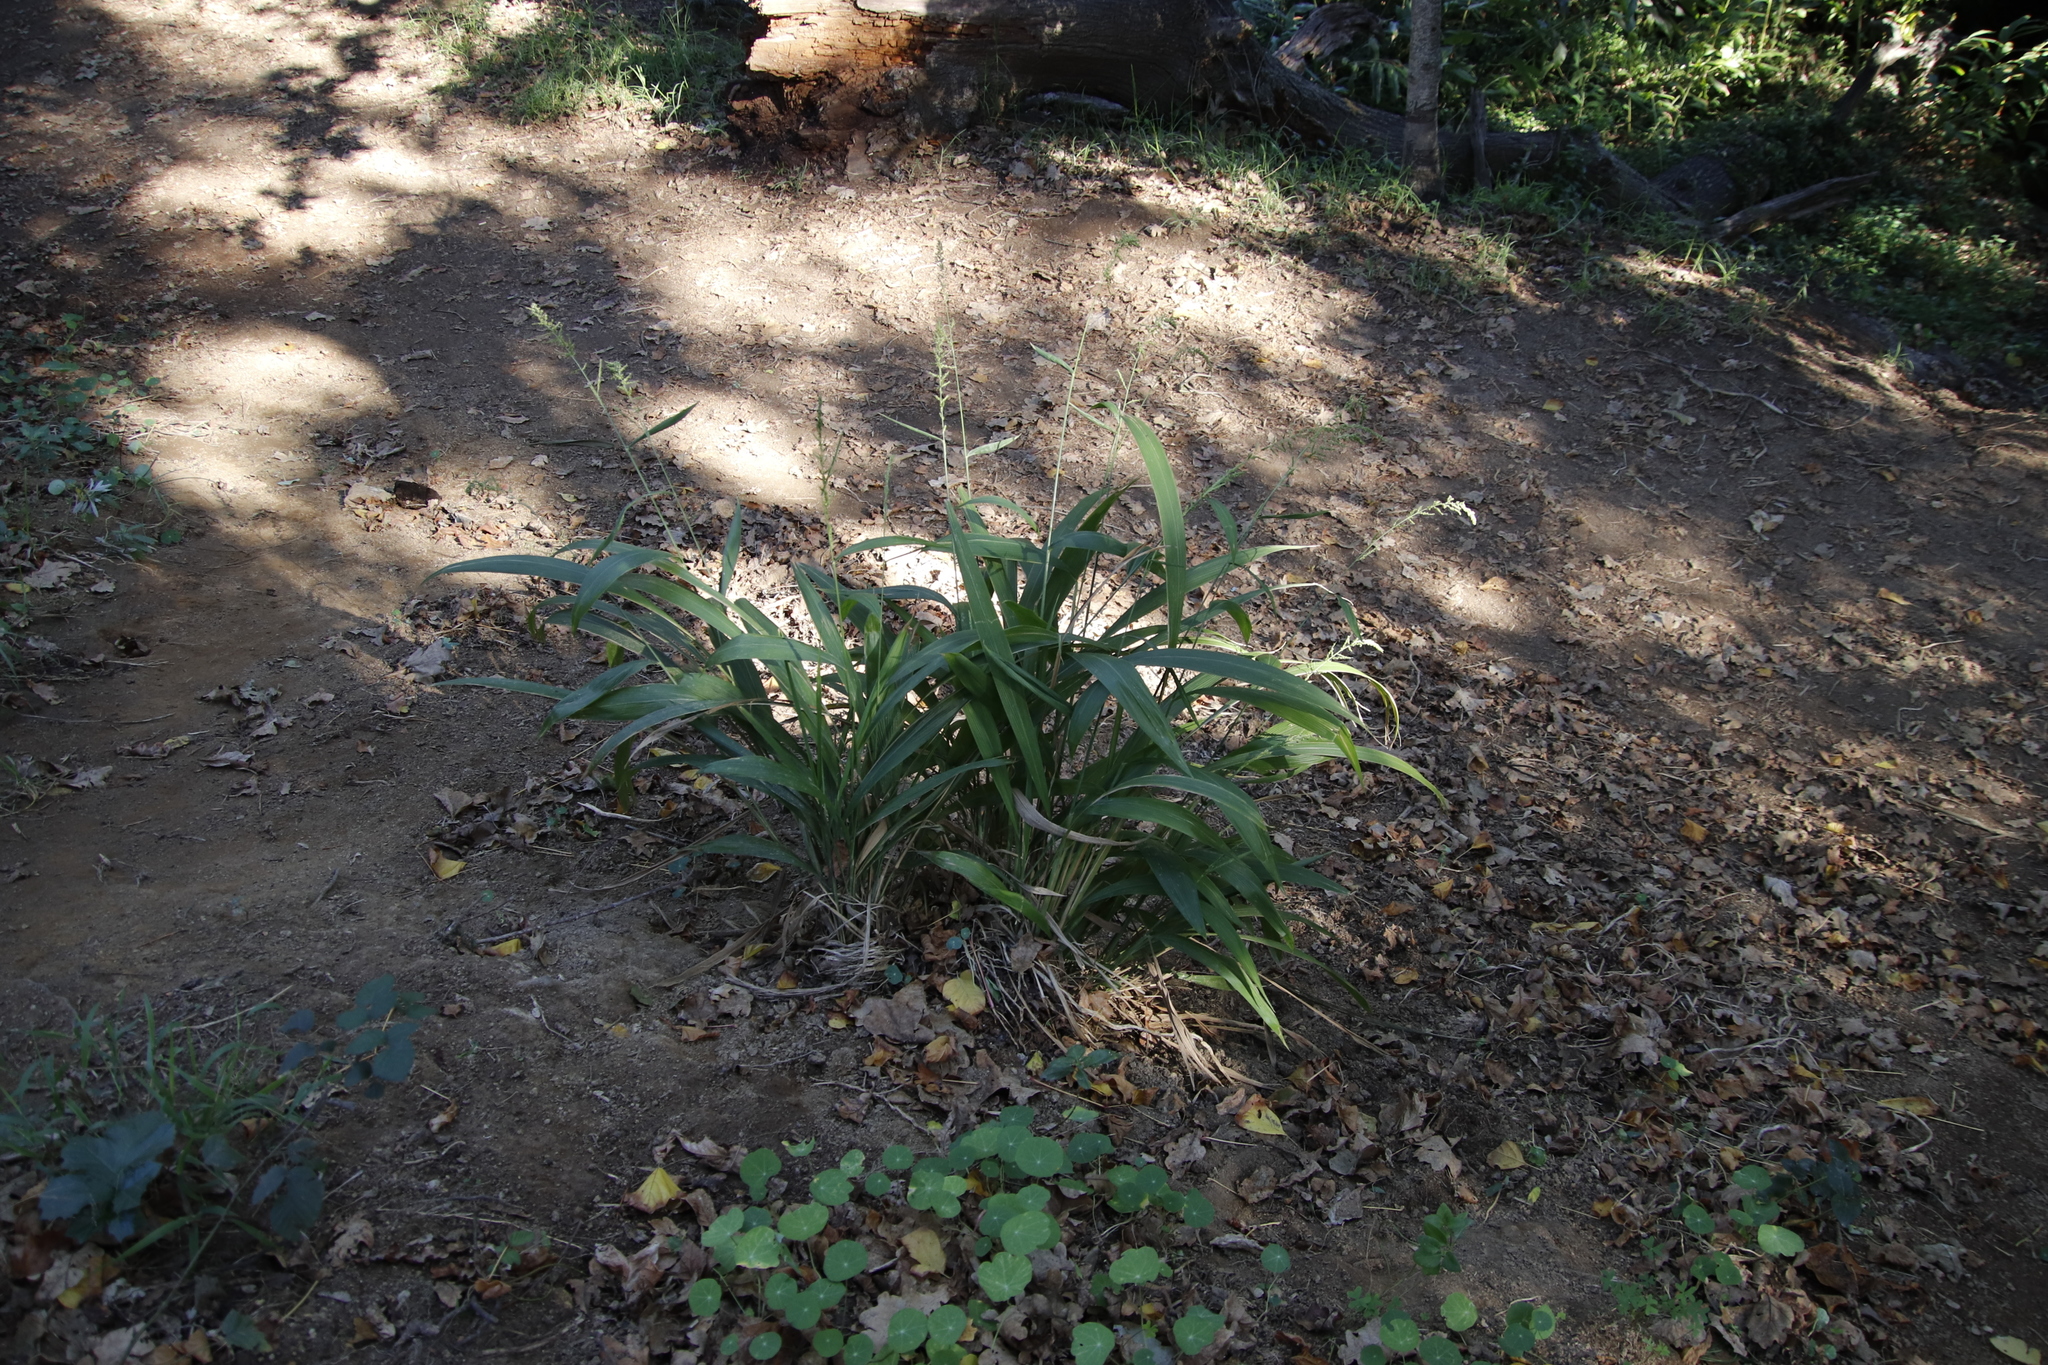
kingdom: Plantae
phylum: Tracheophyta
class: Liliopsida
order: Poales
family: Poaceae
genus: Setaria
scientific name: Setaria megaphylla
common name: Bigleaf bristlegrass
